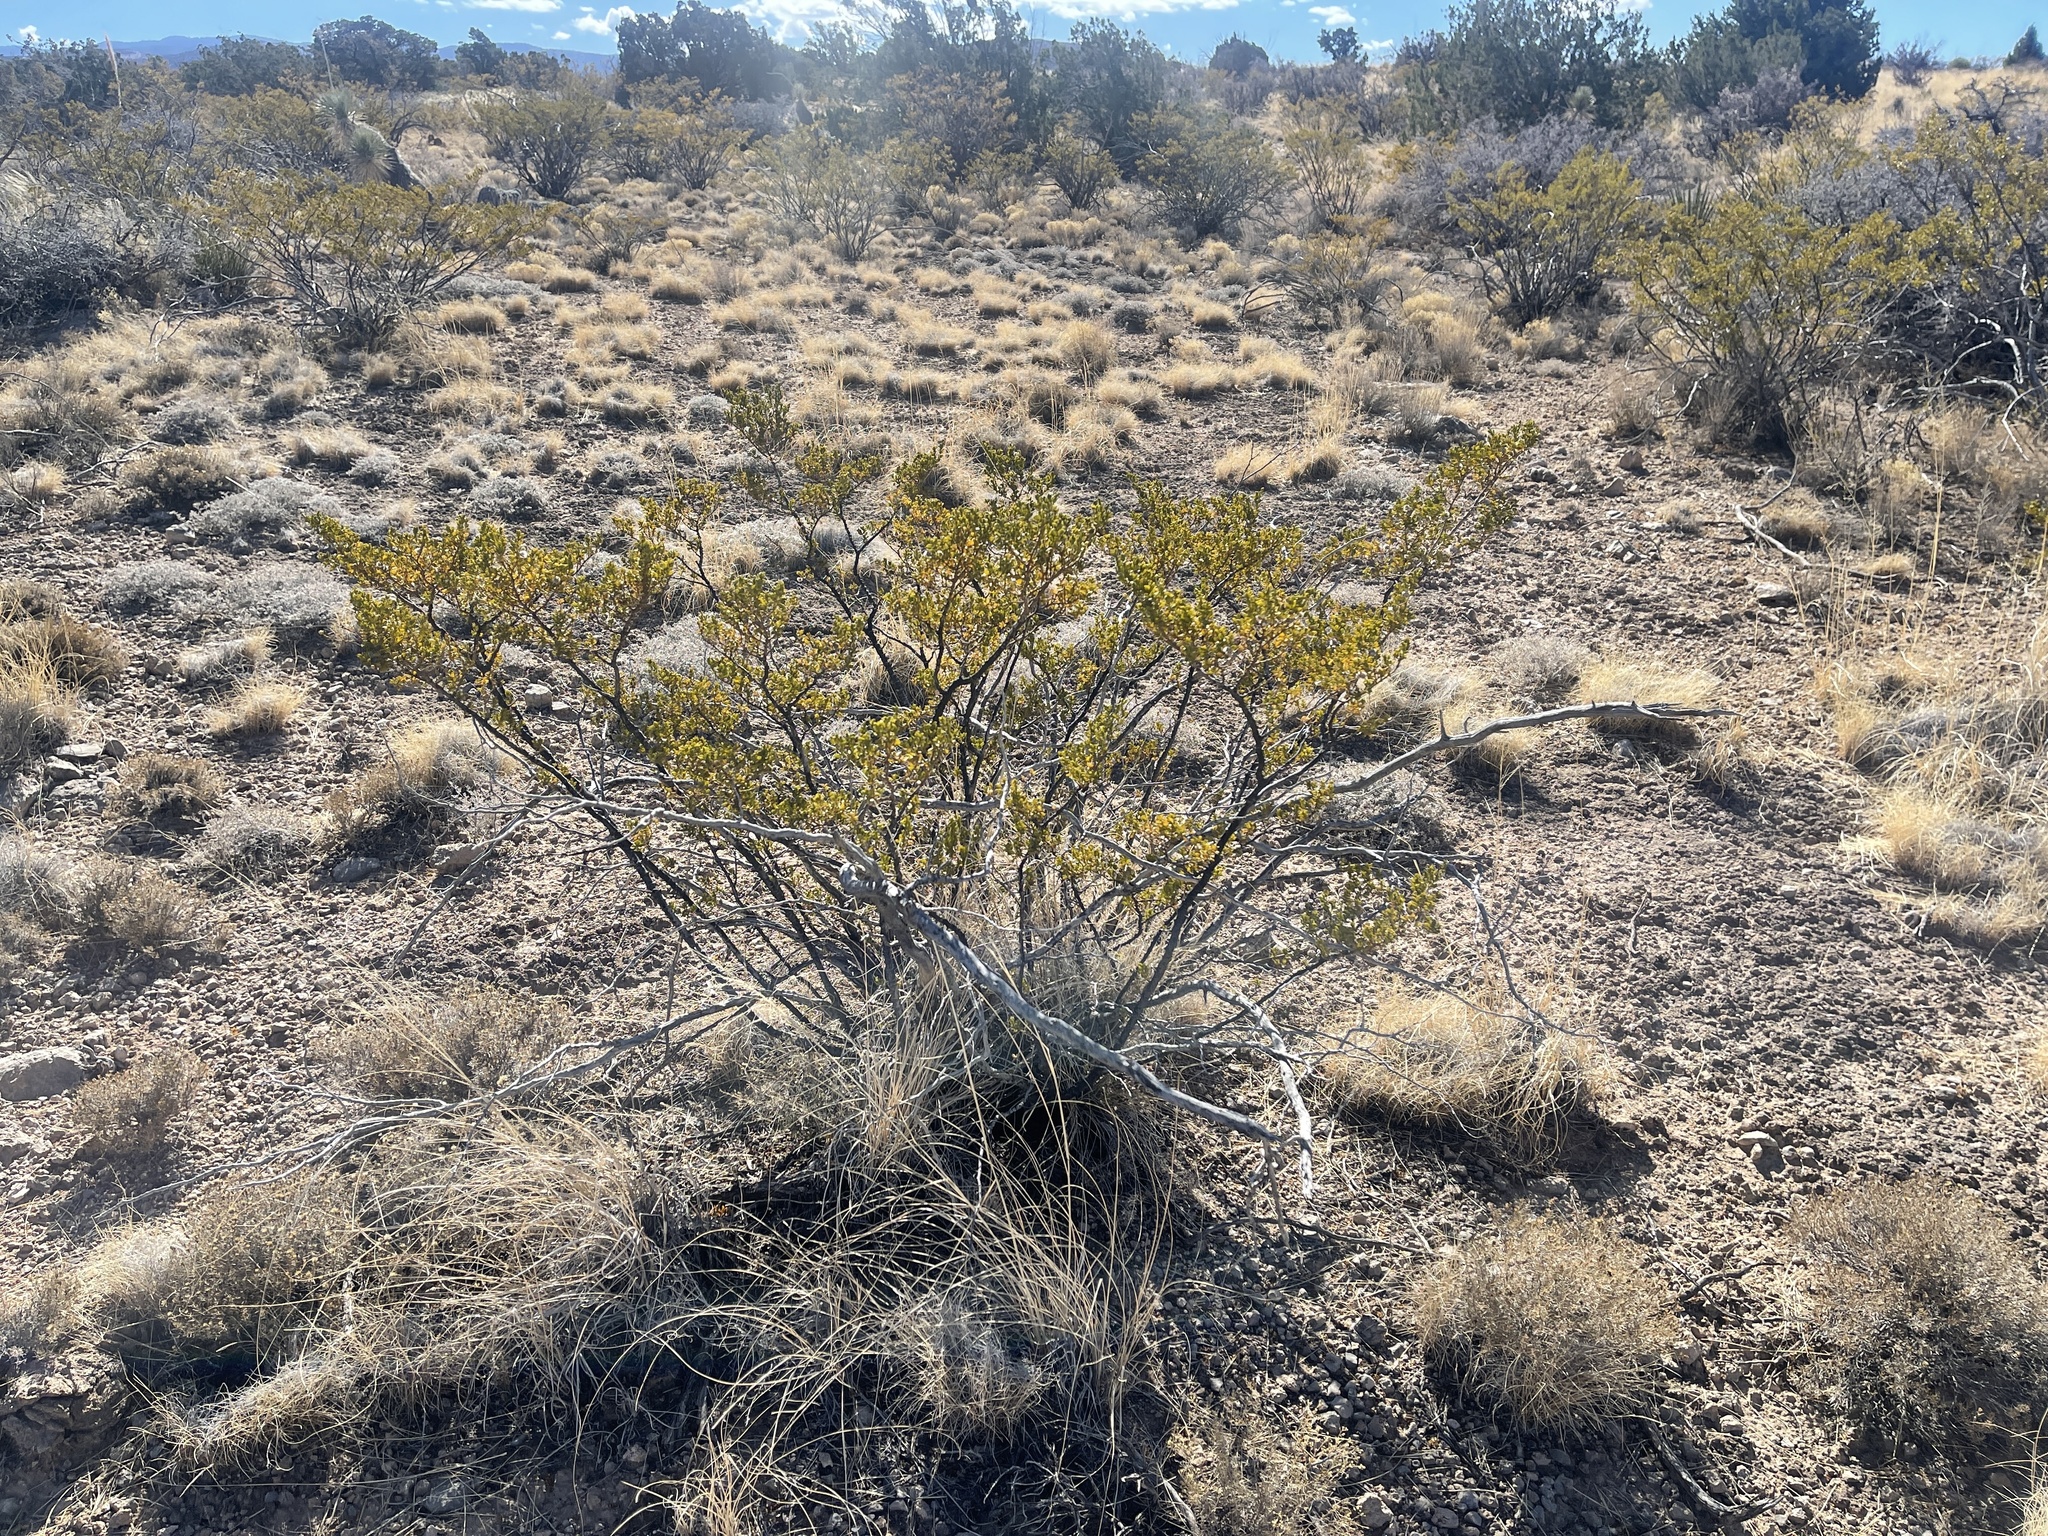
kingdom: Plantae
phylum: Tracheophyta
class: Magnoliopsida
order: Zygophyllales
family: Zygophyllaceae
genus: Larrea
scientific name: Larrea tridentata
